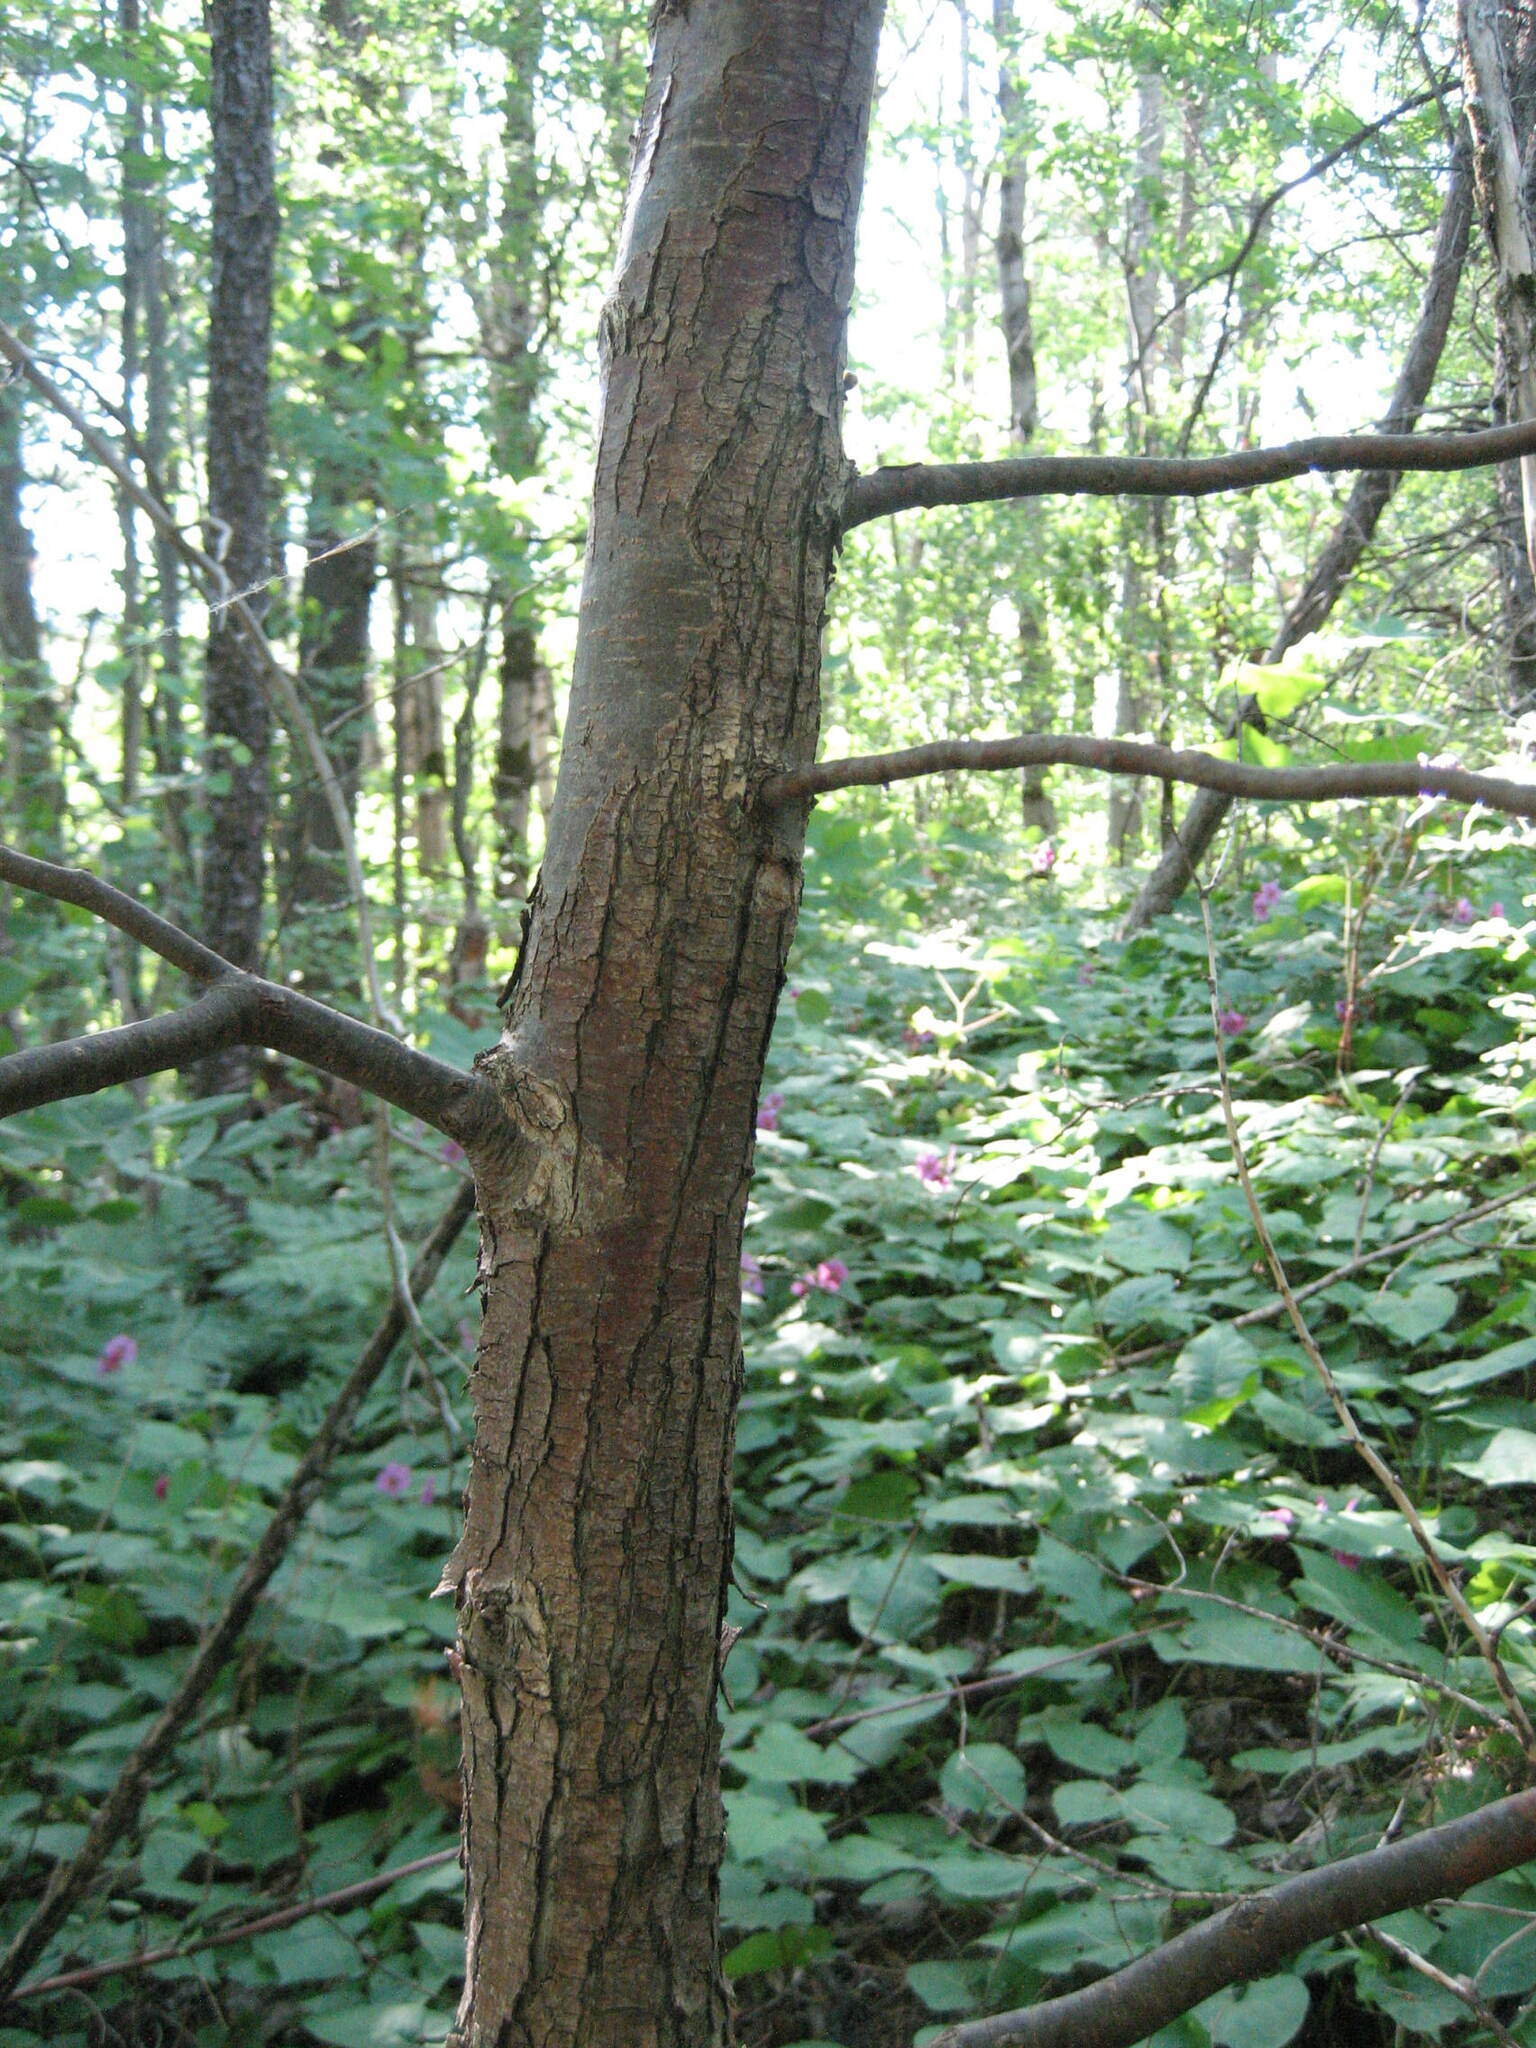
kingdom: Plantae
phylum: Tracheophyta
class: Magnoliopsida
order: Fagales
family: Betulaceae
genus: Ostrya
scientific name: Ostrya virginiana
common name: Ironwood
